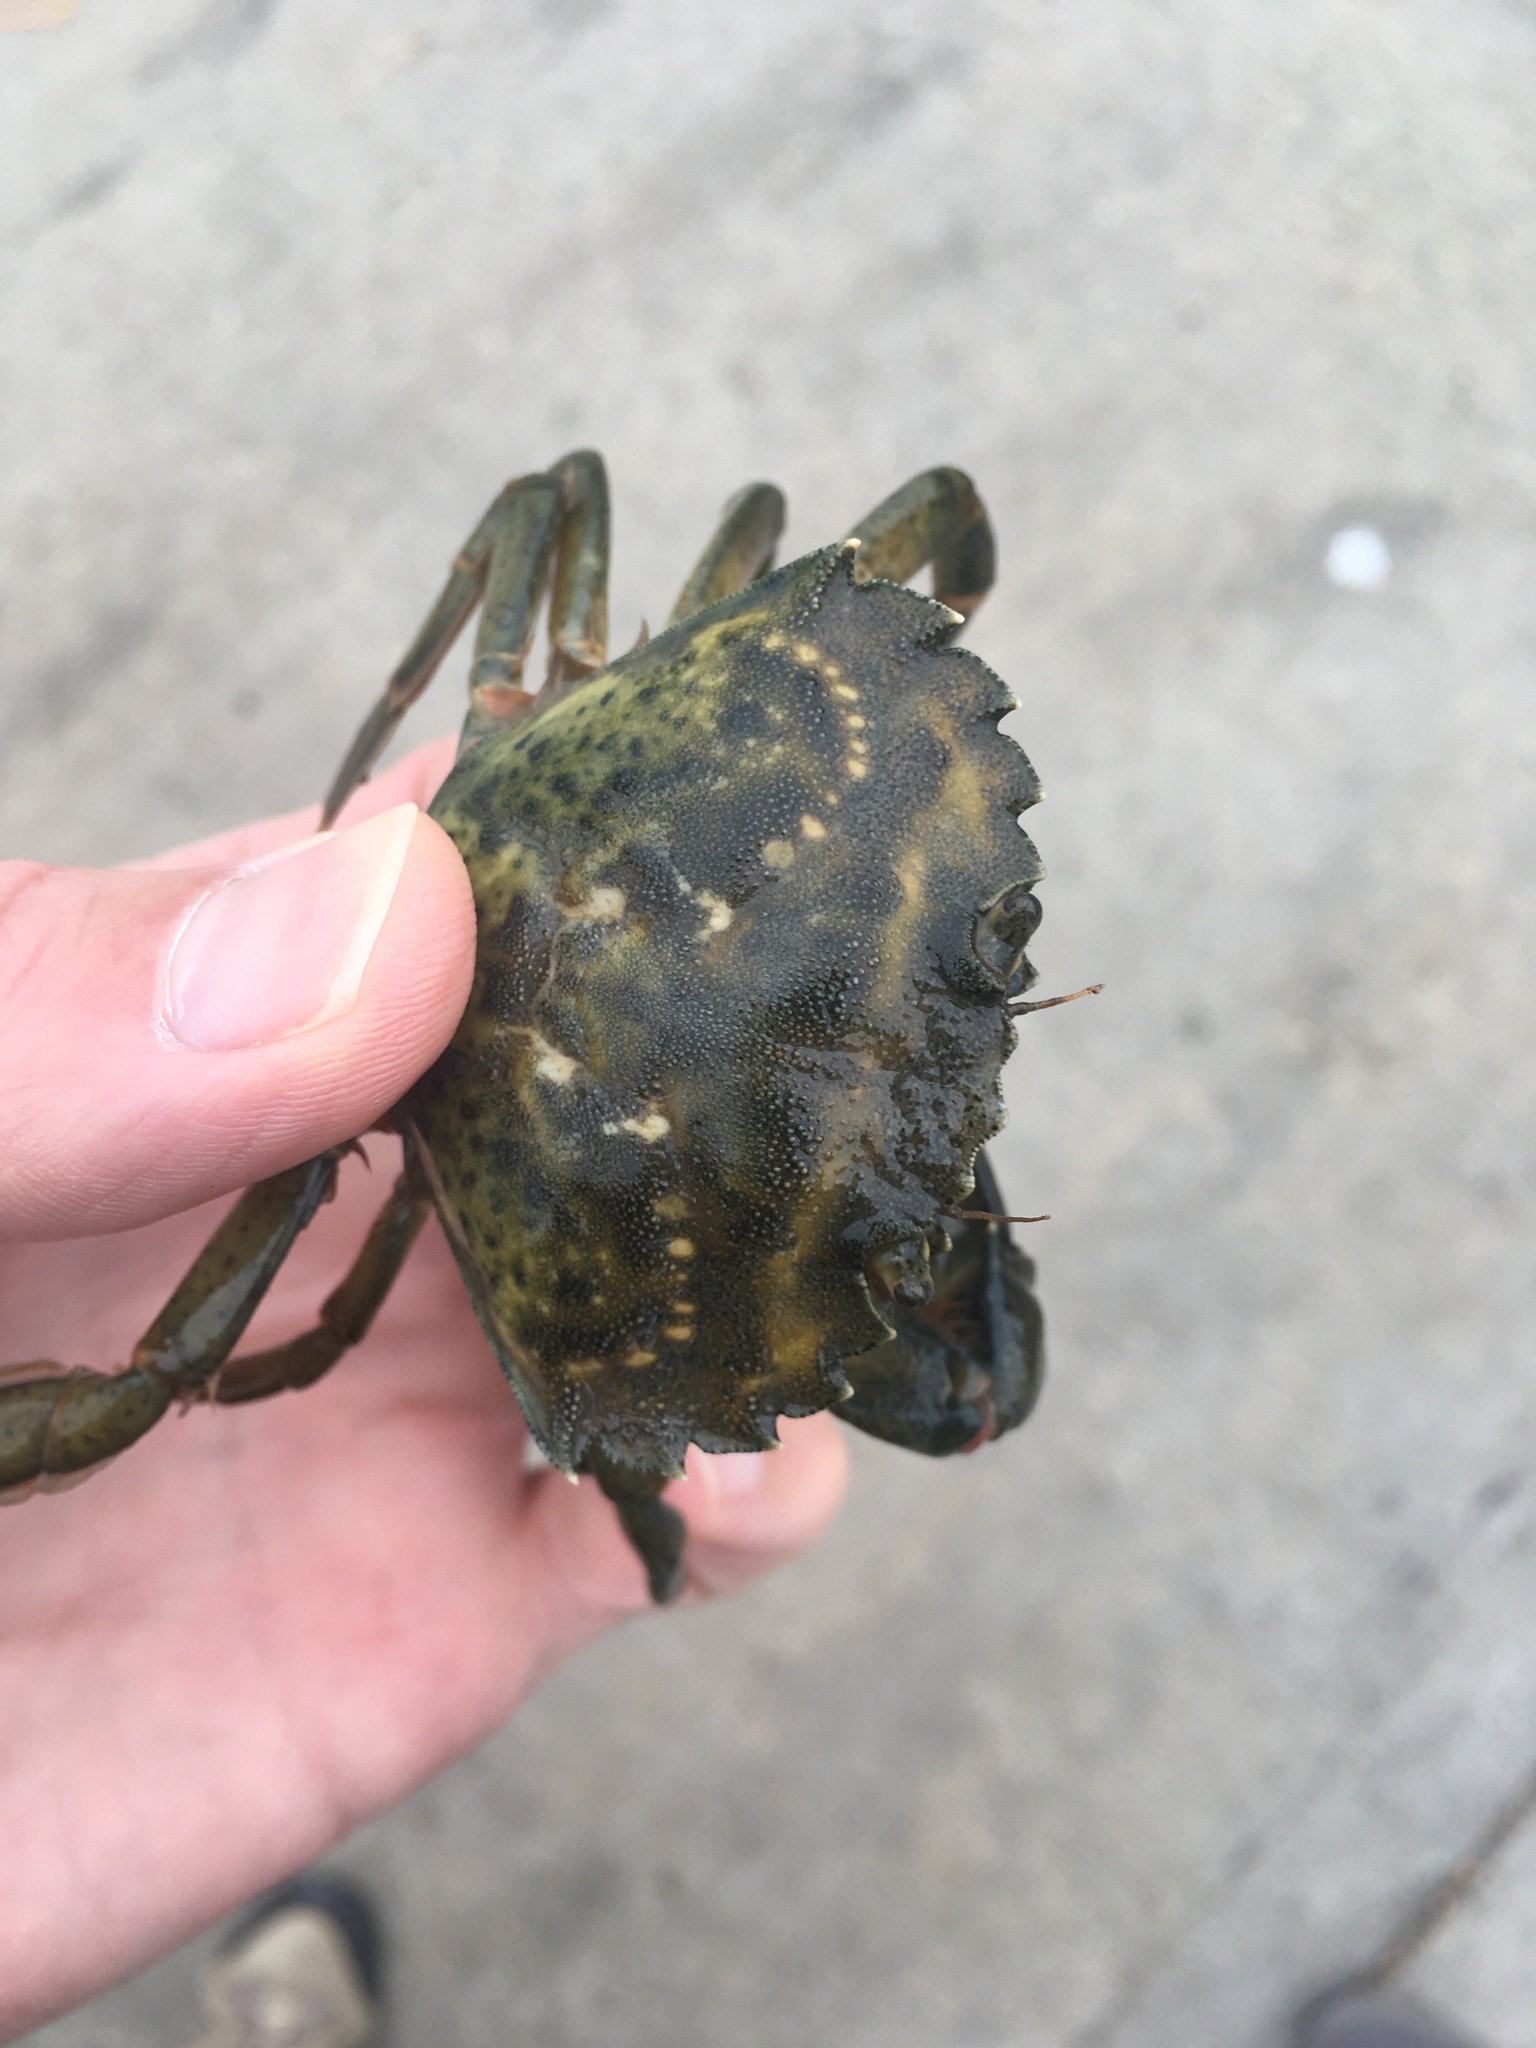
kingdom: Animalia
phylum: Arthropoda
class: Malacostraca
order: Decapoda
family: Carcinidae
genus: Carcinus
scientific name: Carcinus maenas
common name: European green crab
